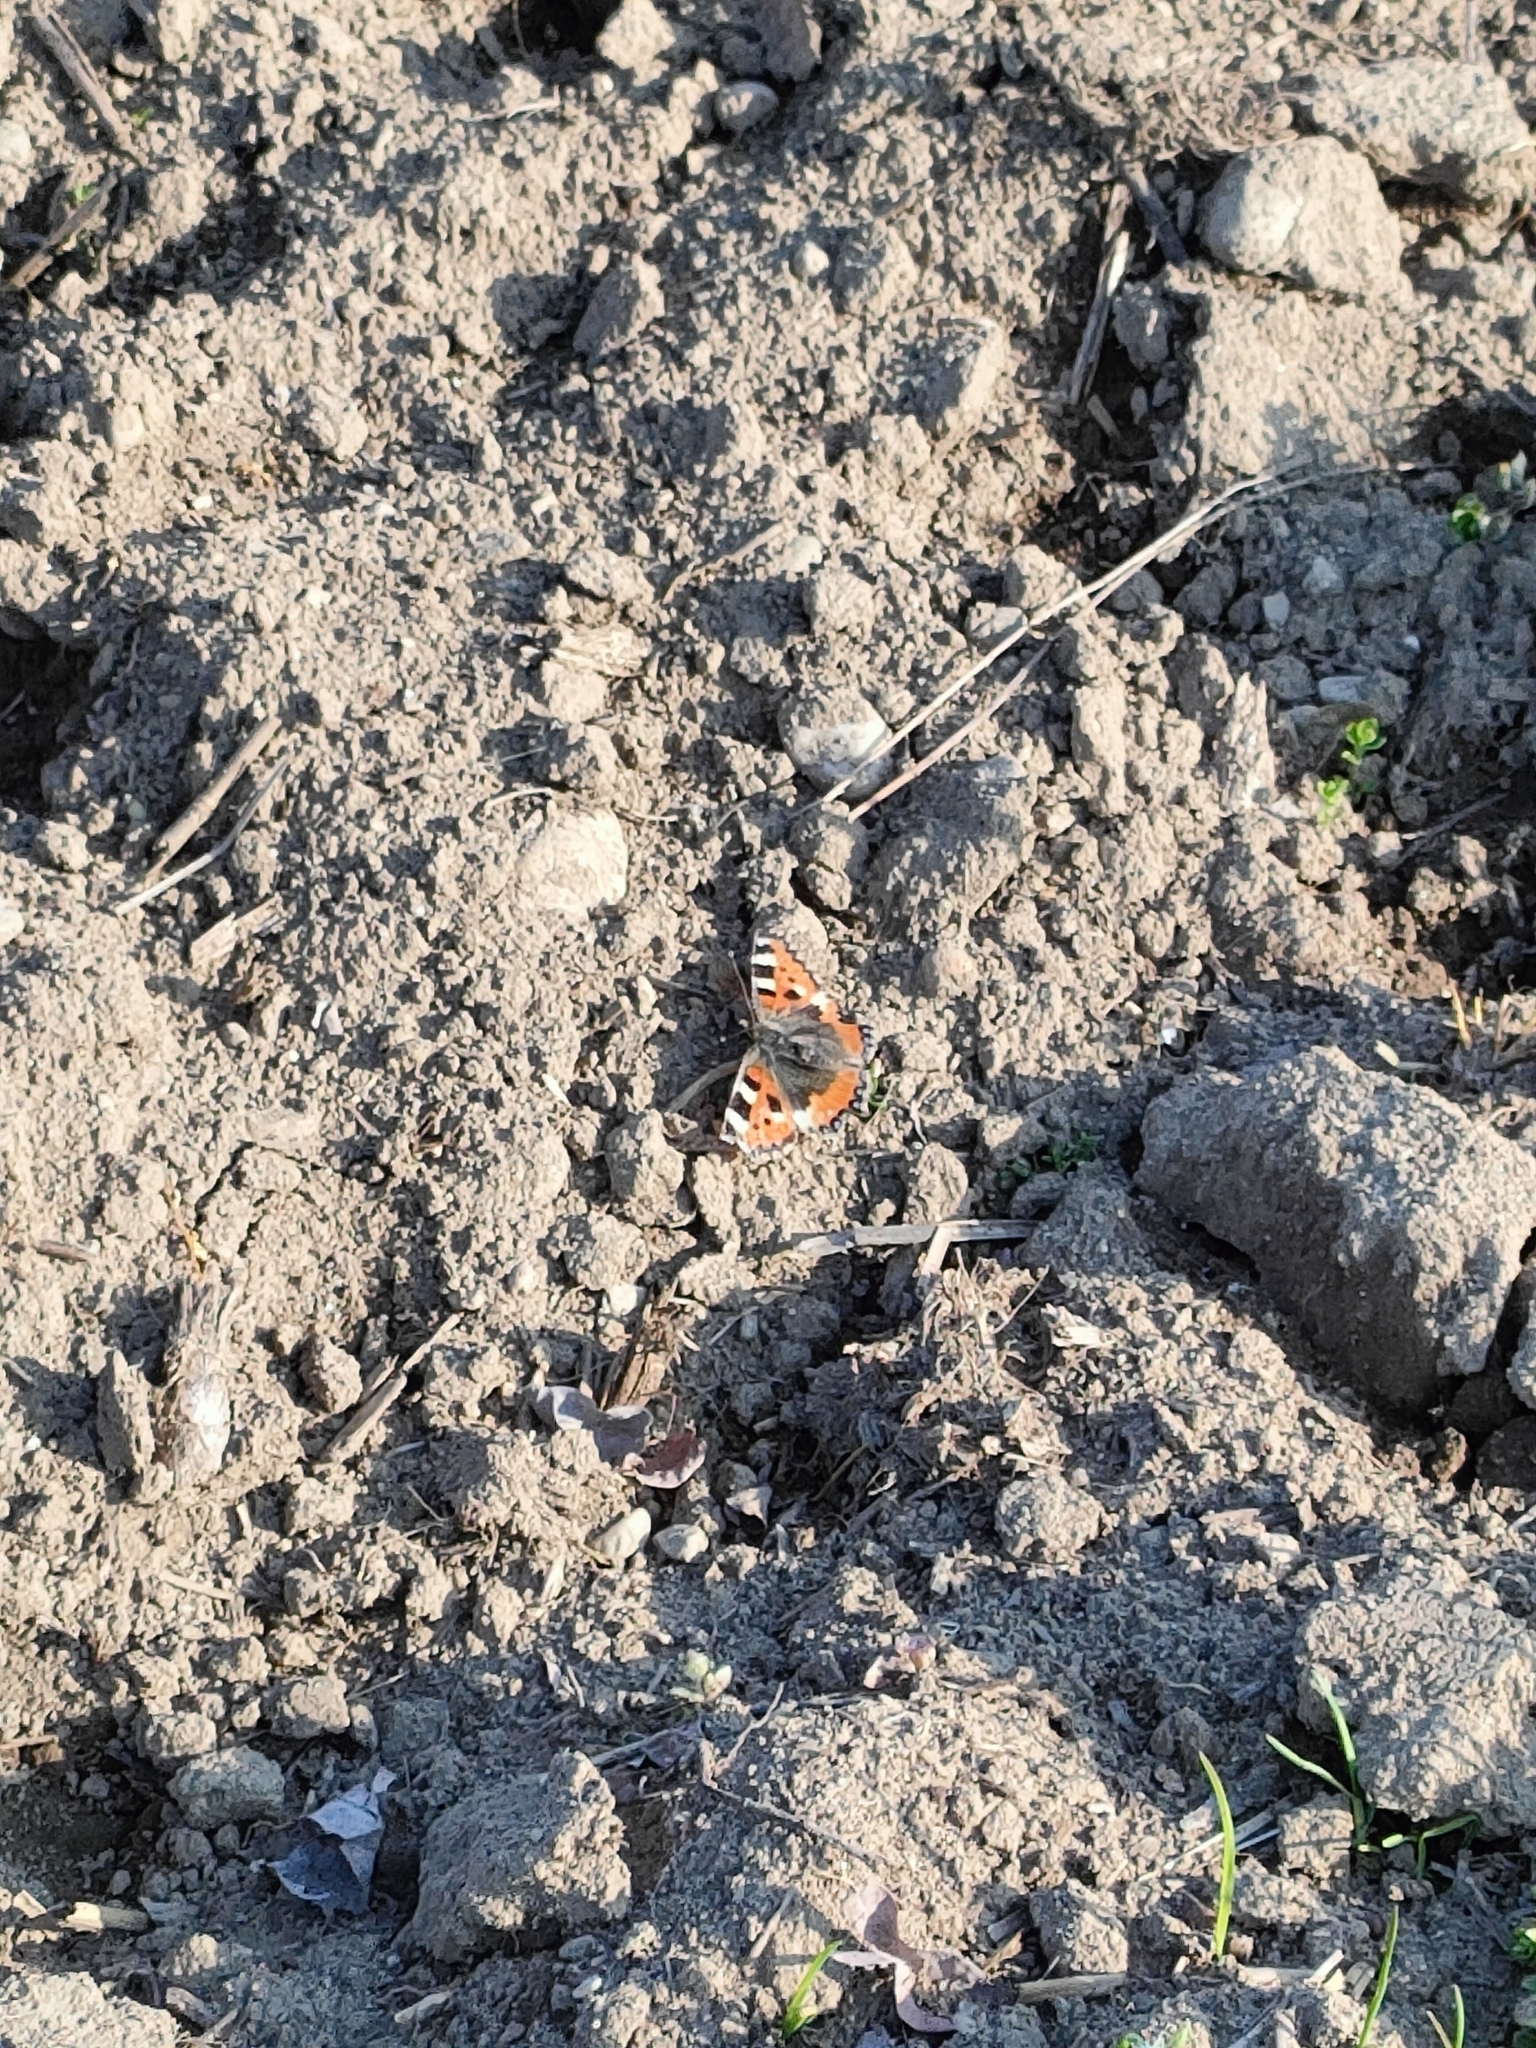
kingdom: Animalia
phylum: Arthropoda
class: Insecta
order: Lepidoptera
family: Nymphalidae
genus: Aglais
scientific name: Aglais urticae
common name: Small tortoiseshell
